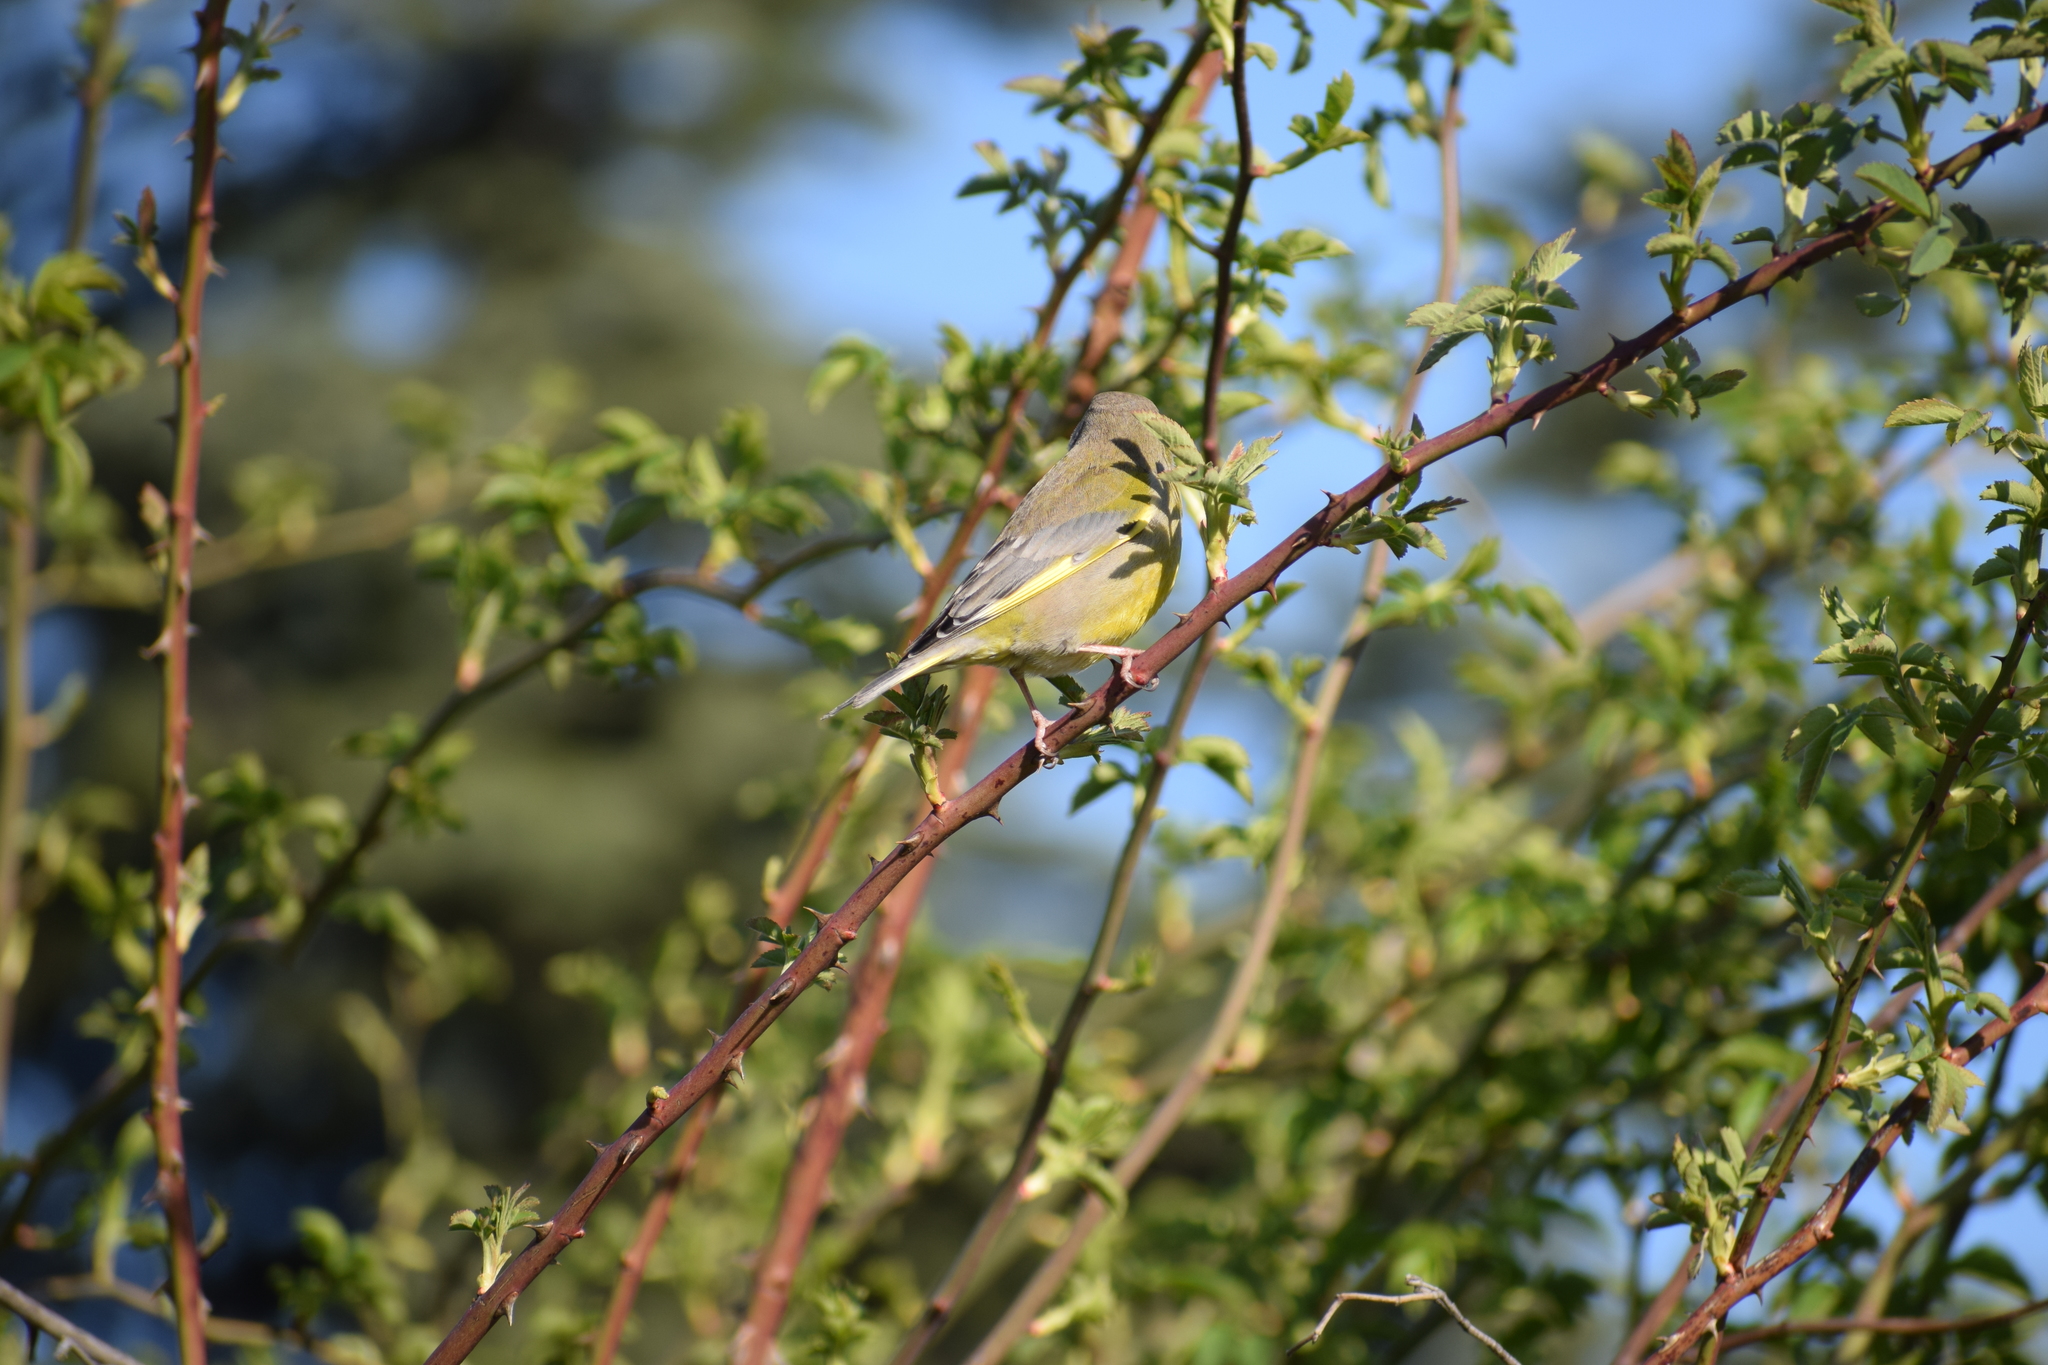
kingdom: Plantae
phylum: Tracheophyta
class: Liliopsida
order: Poales
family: Poaceae
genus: Chloris
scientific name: Chloris chloris
